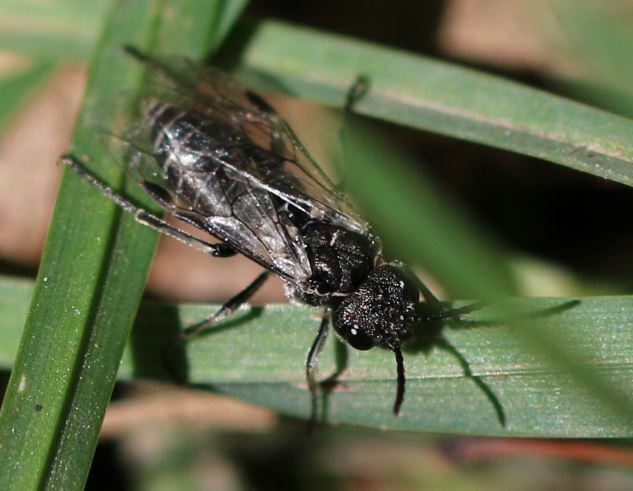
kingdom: Animalia
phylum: Arthropoda
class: Insecta
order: Hymenoptera
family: Tenthredinidae
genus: Sciapteryx
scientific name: Sciapteryx consobrina
